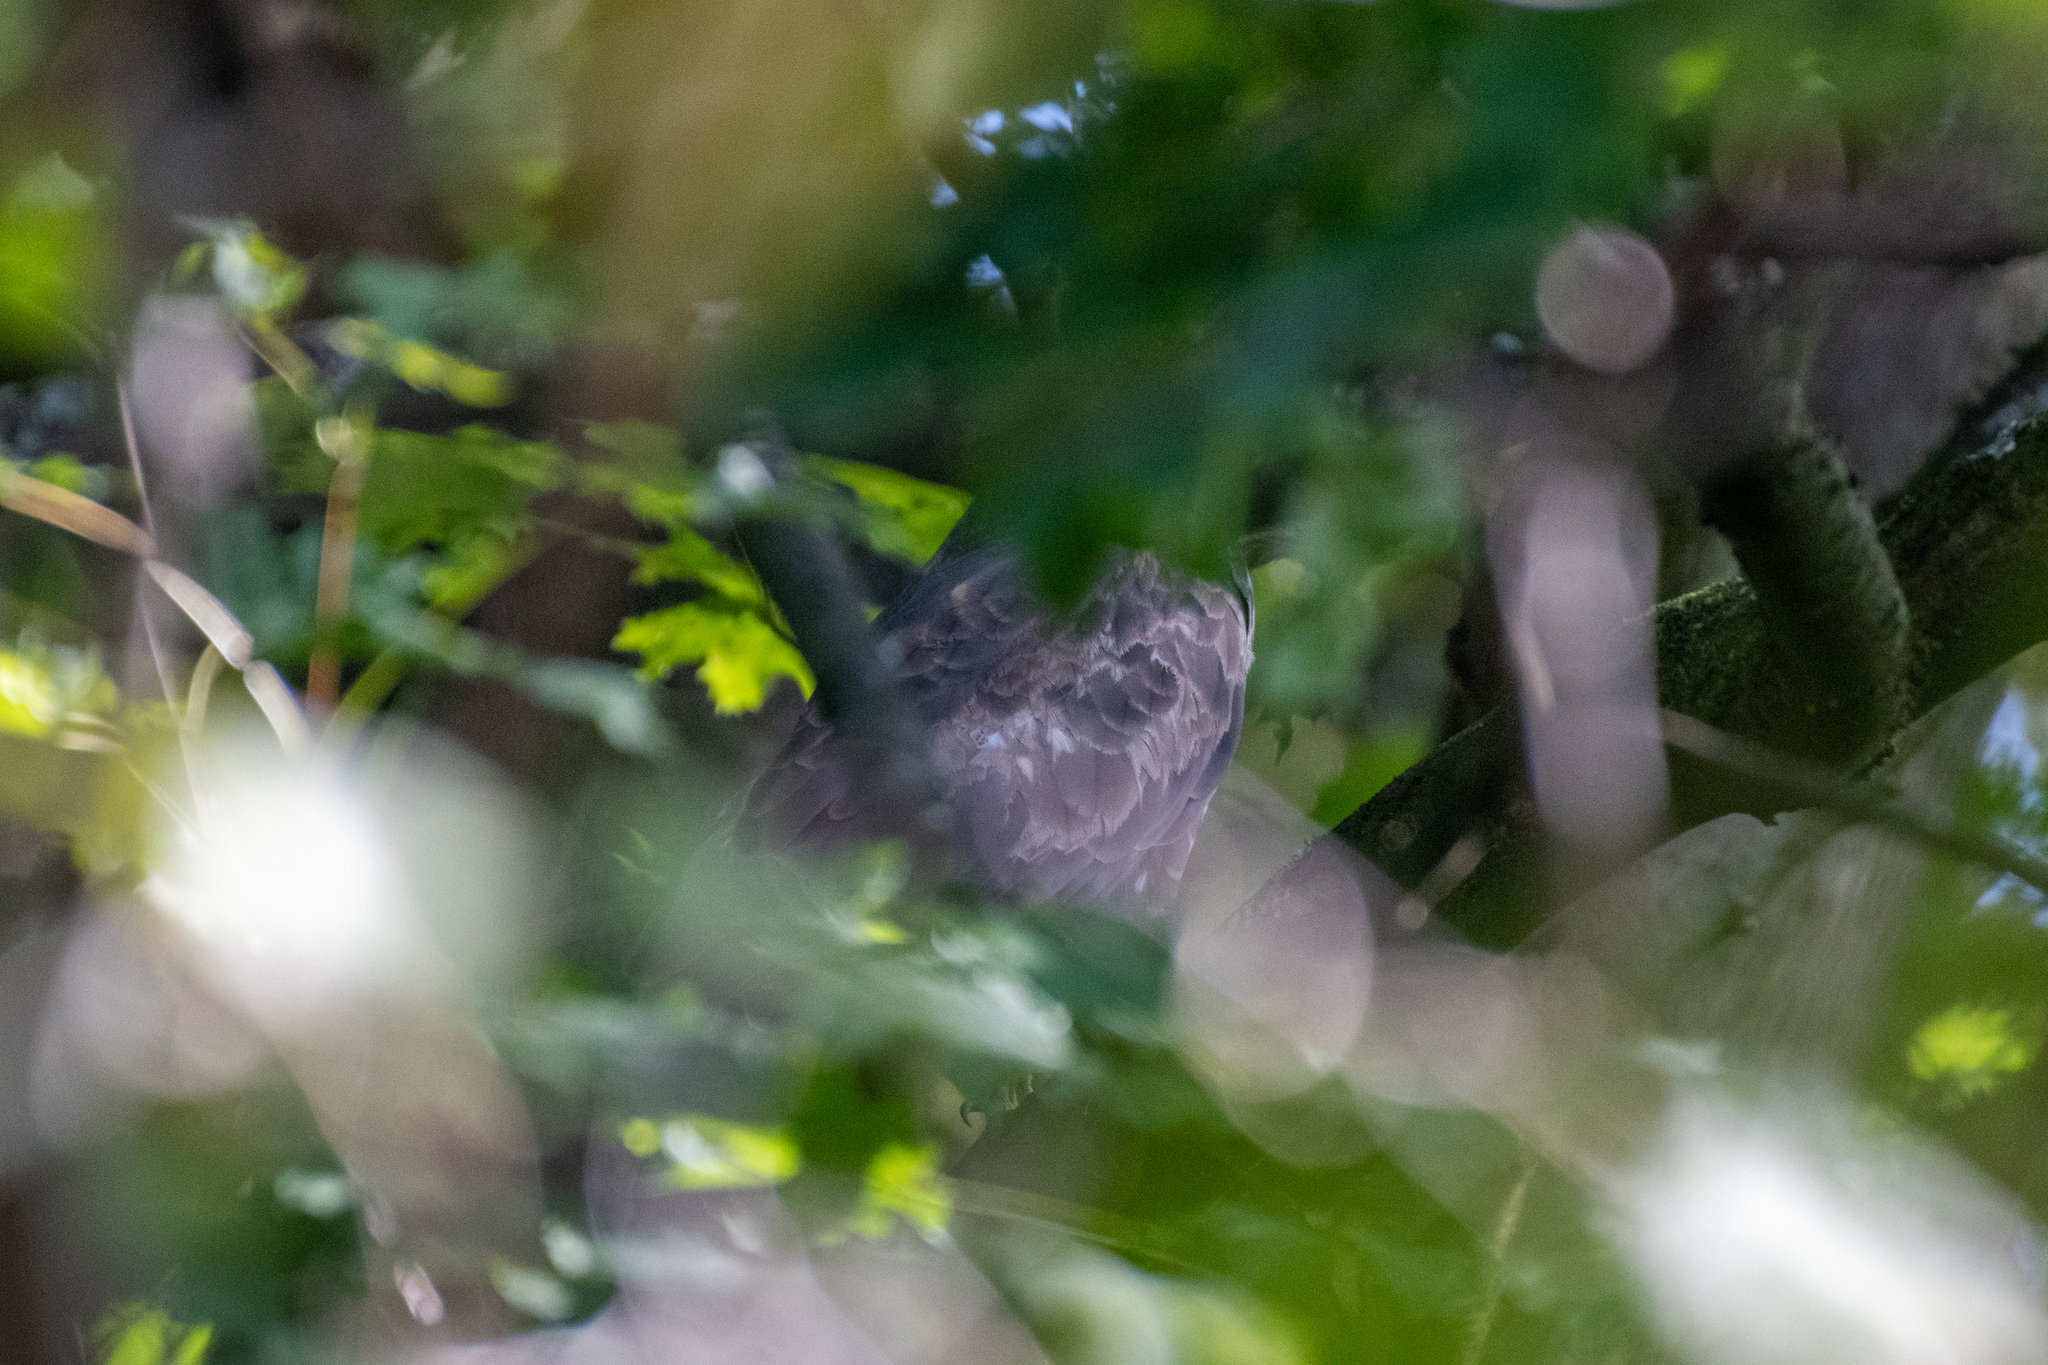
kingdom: Animalia
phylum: Chordata
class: Aves
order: Accipitriformes
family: Accipitridae
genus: Buteo
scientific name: Buteo buteo
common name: Common buzzard
